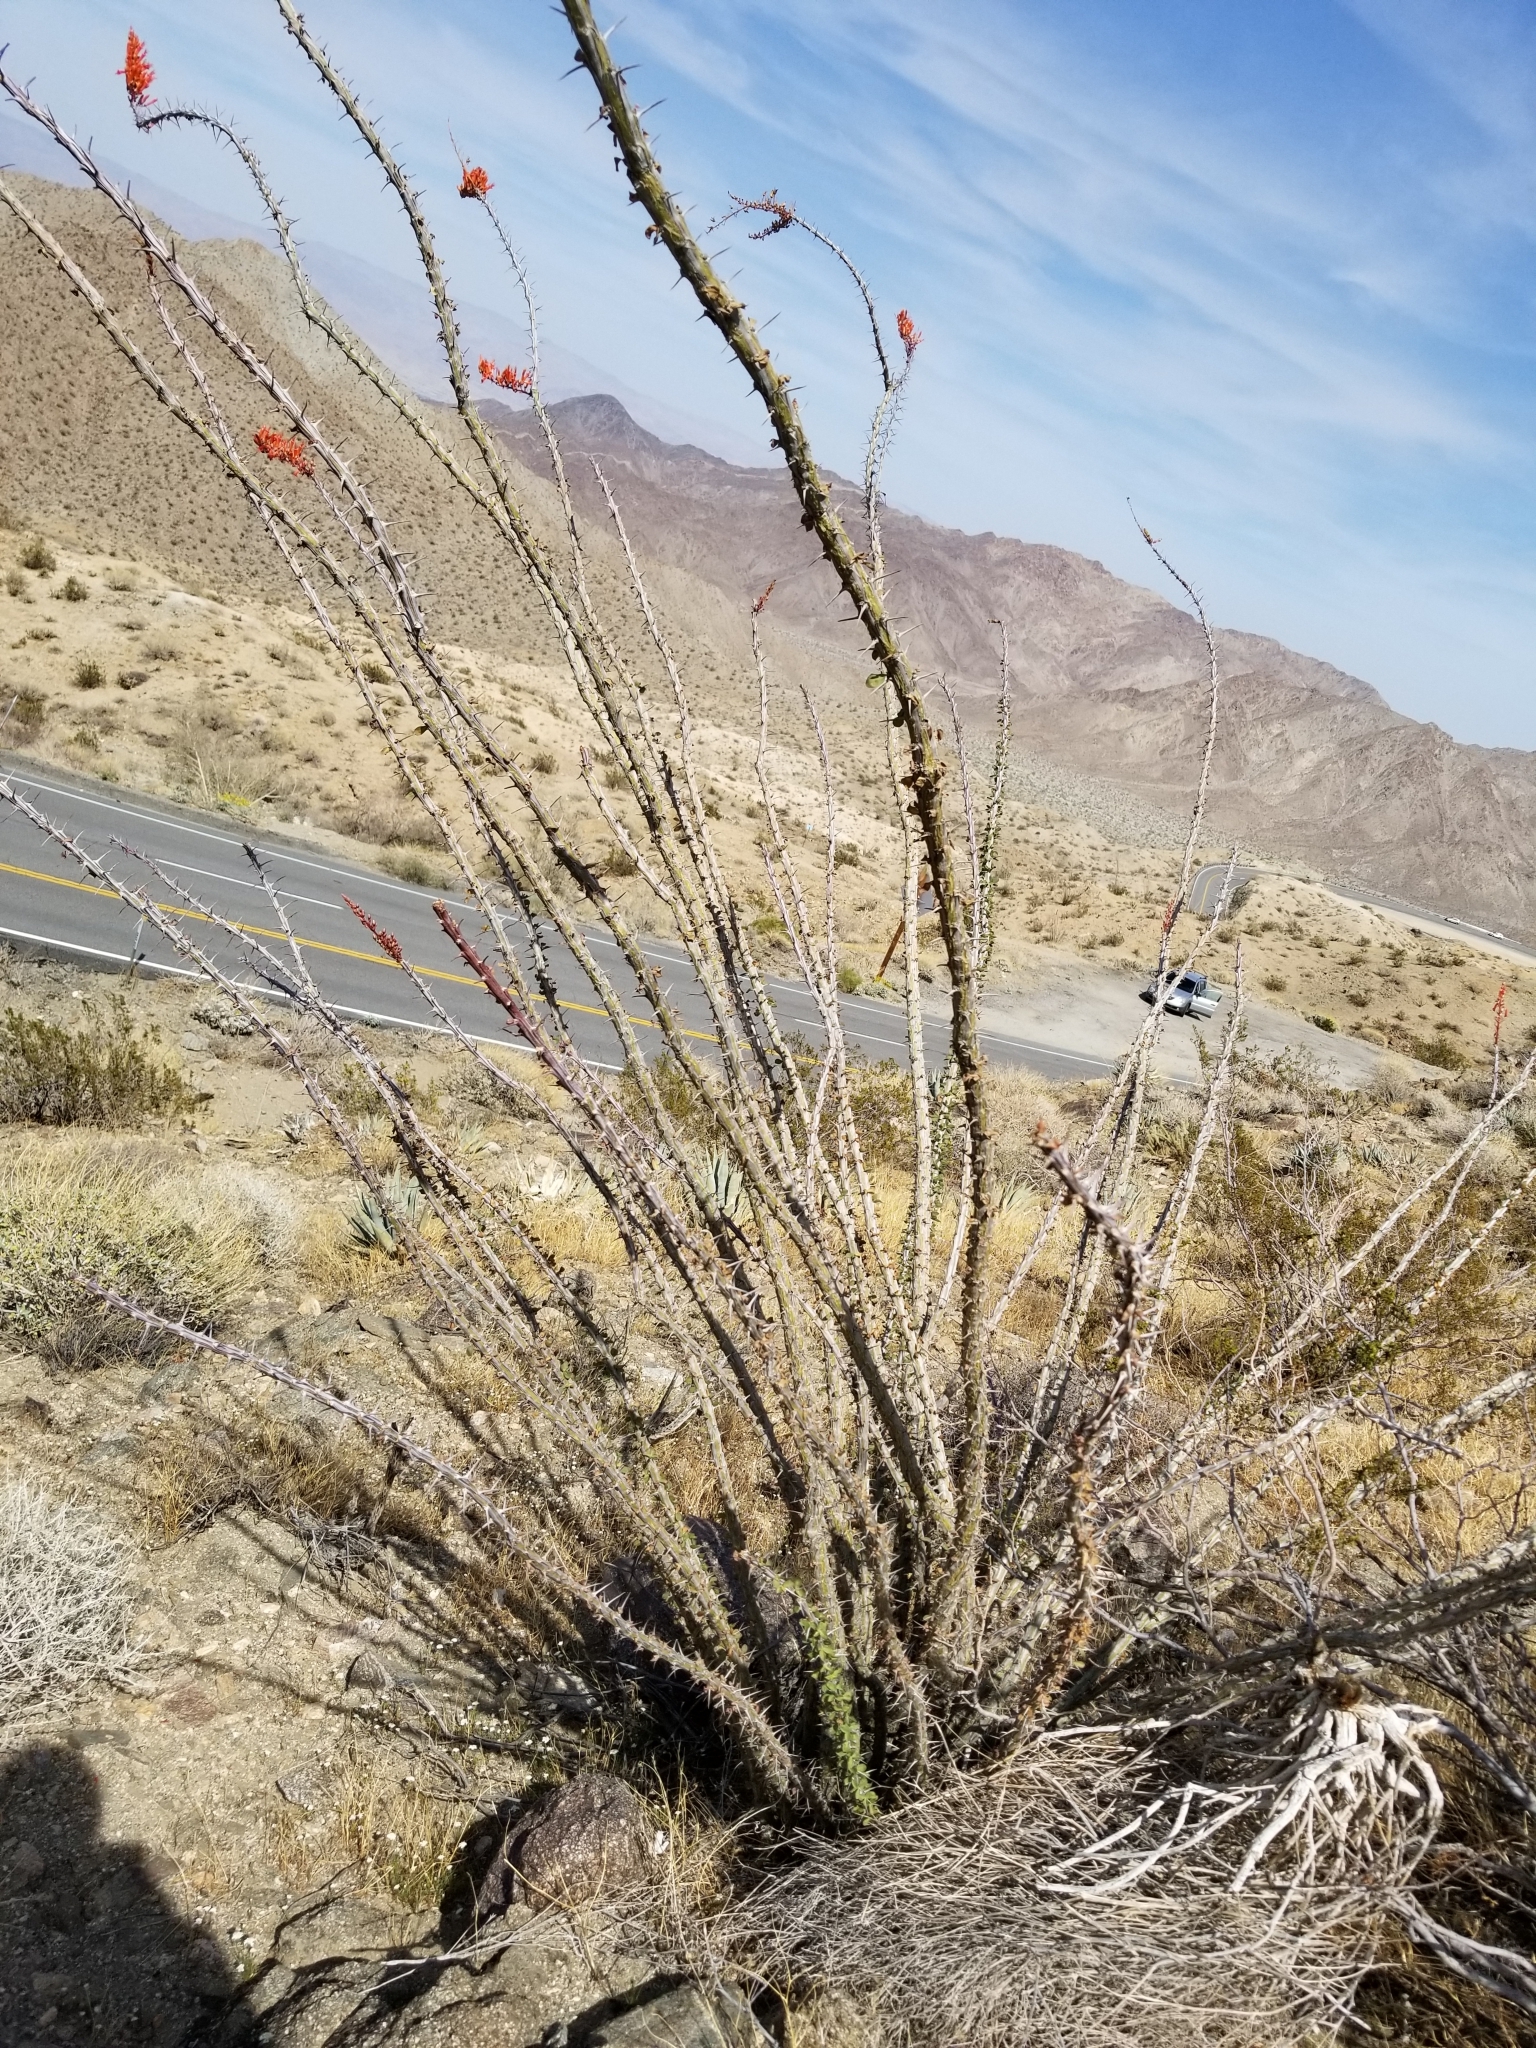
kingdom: Plantae
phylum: Tracheophyta
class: Magnoliopsida
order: Ericales
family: Fouquieriaceae
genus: Fouquieria
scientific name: Fouquieria splendens
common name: Vine-cactus
